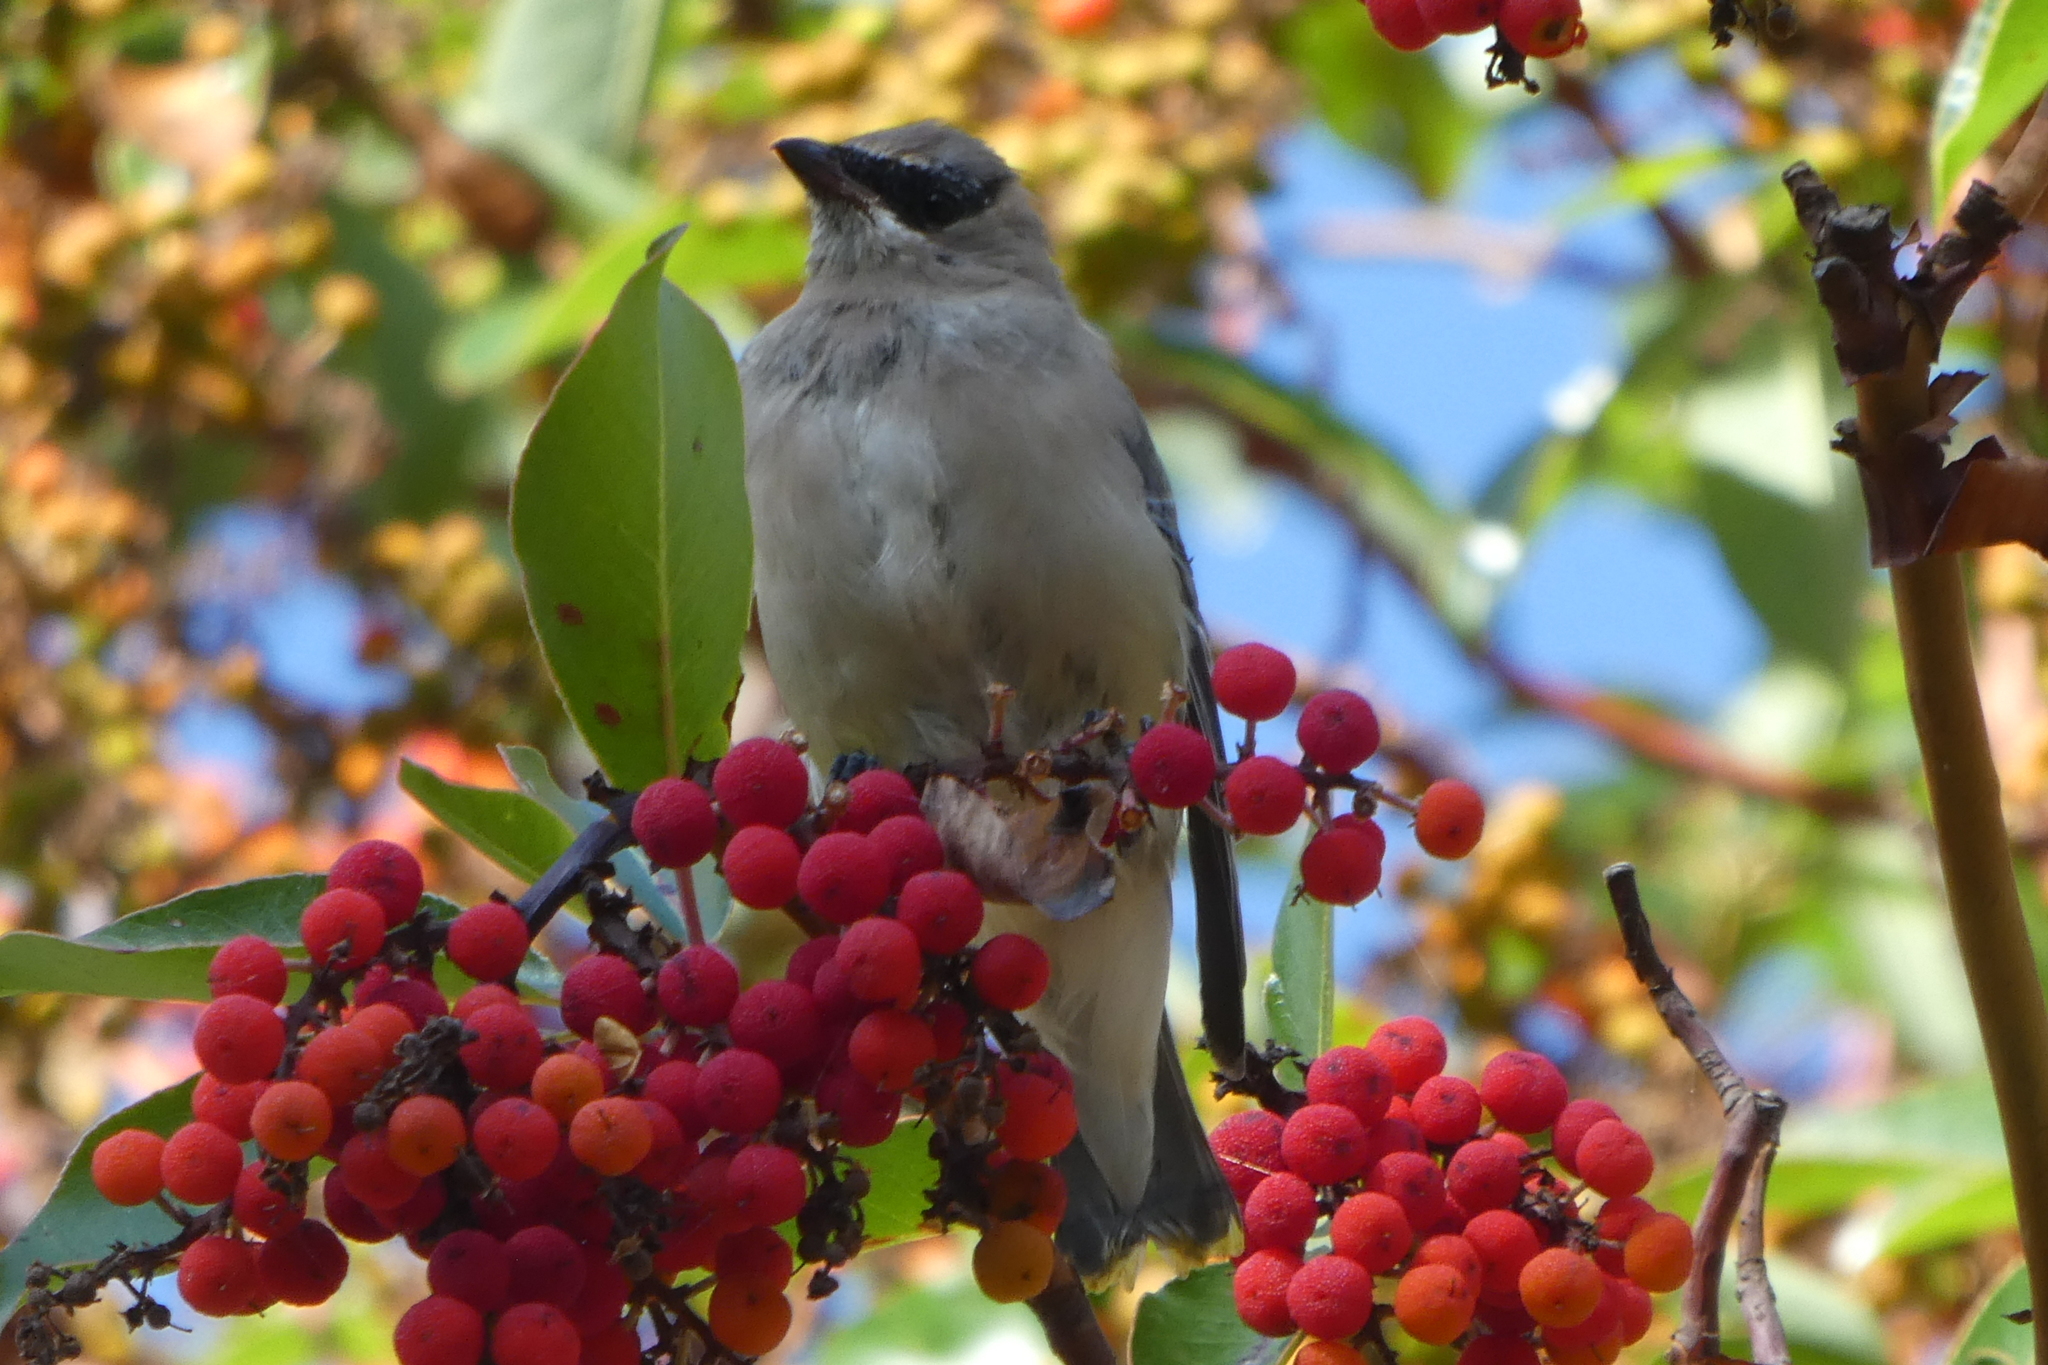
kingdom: Animalia
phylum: Chordata
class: Aves
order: Passeriformes
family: Bombycillidae
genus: Bombycilla
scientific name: Bombycilla cedrorum
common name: Cedar waxwing
